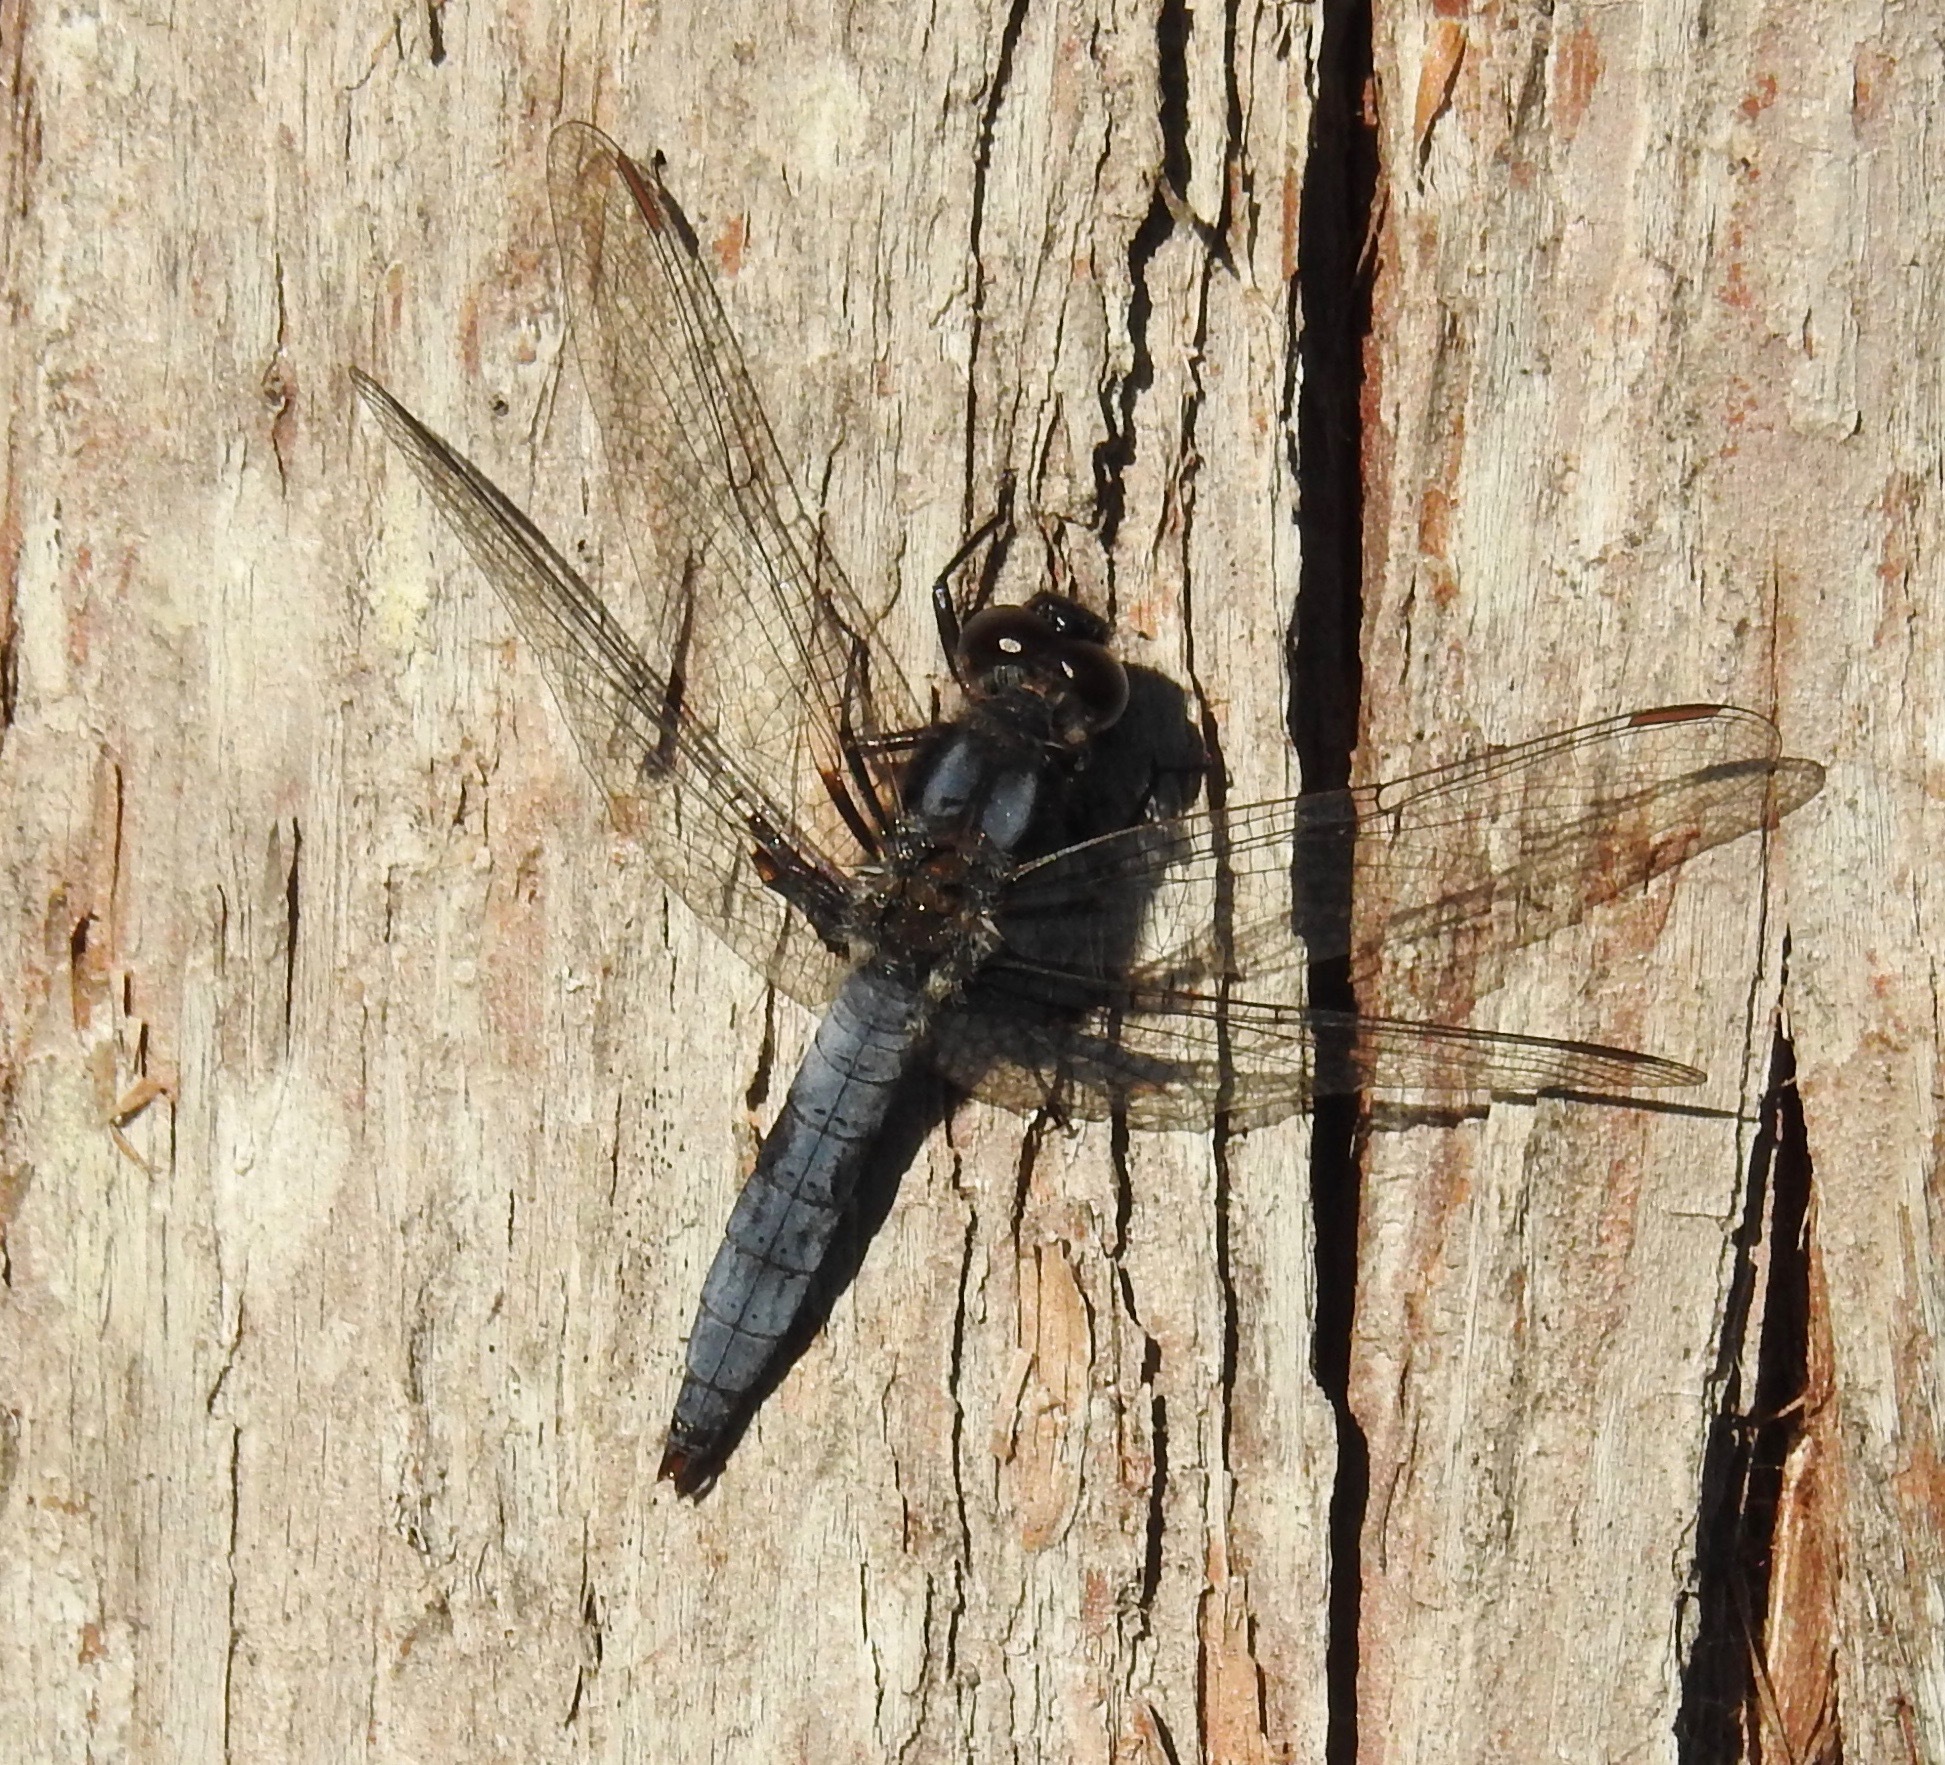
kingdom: Animalia
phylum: Arthropoda
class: Insecta
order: Odonata
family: Libellulidae
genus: Ladona
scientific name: Ladona deplanata
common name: Blue corporal
